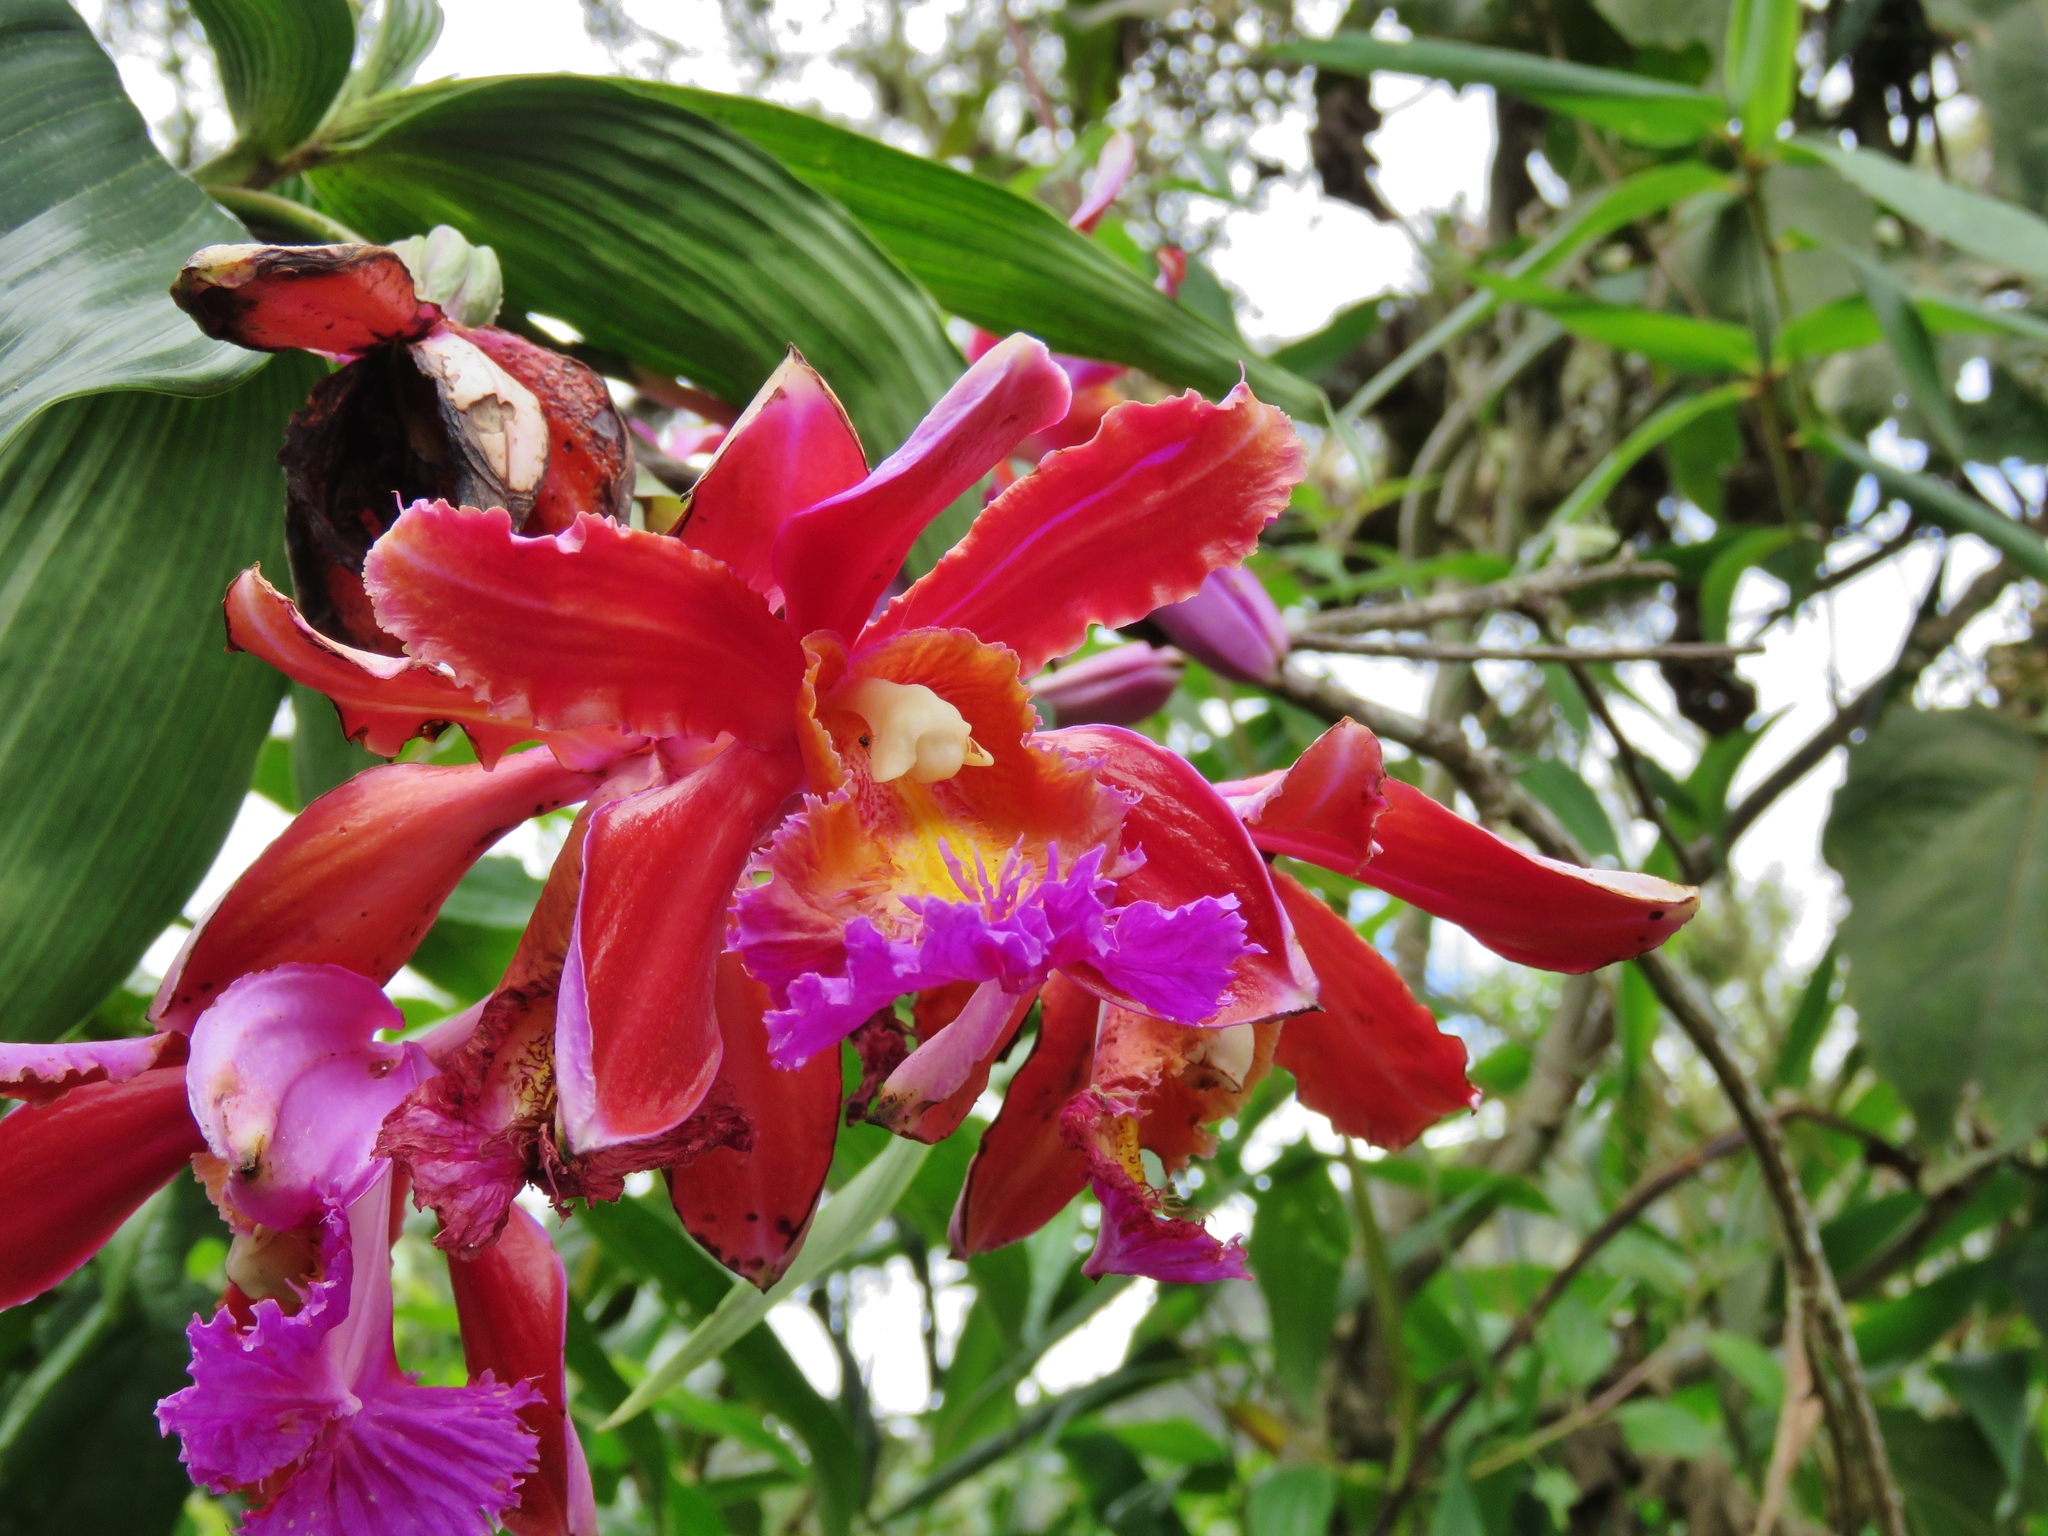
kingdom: Plantae
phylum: Tracheophyta
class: Liliopsida
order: Asparagales
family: Orchidaceae
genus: Sobralia
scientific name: Sobralia dichotoma
